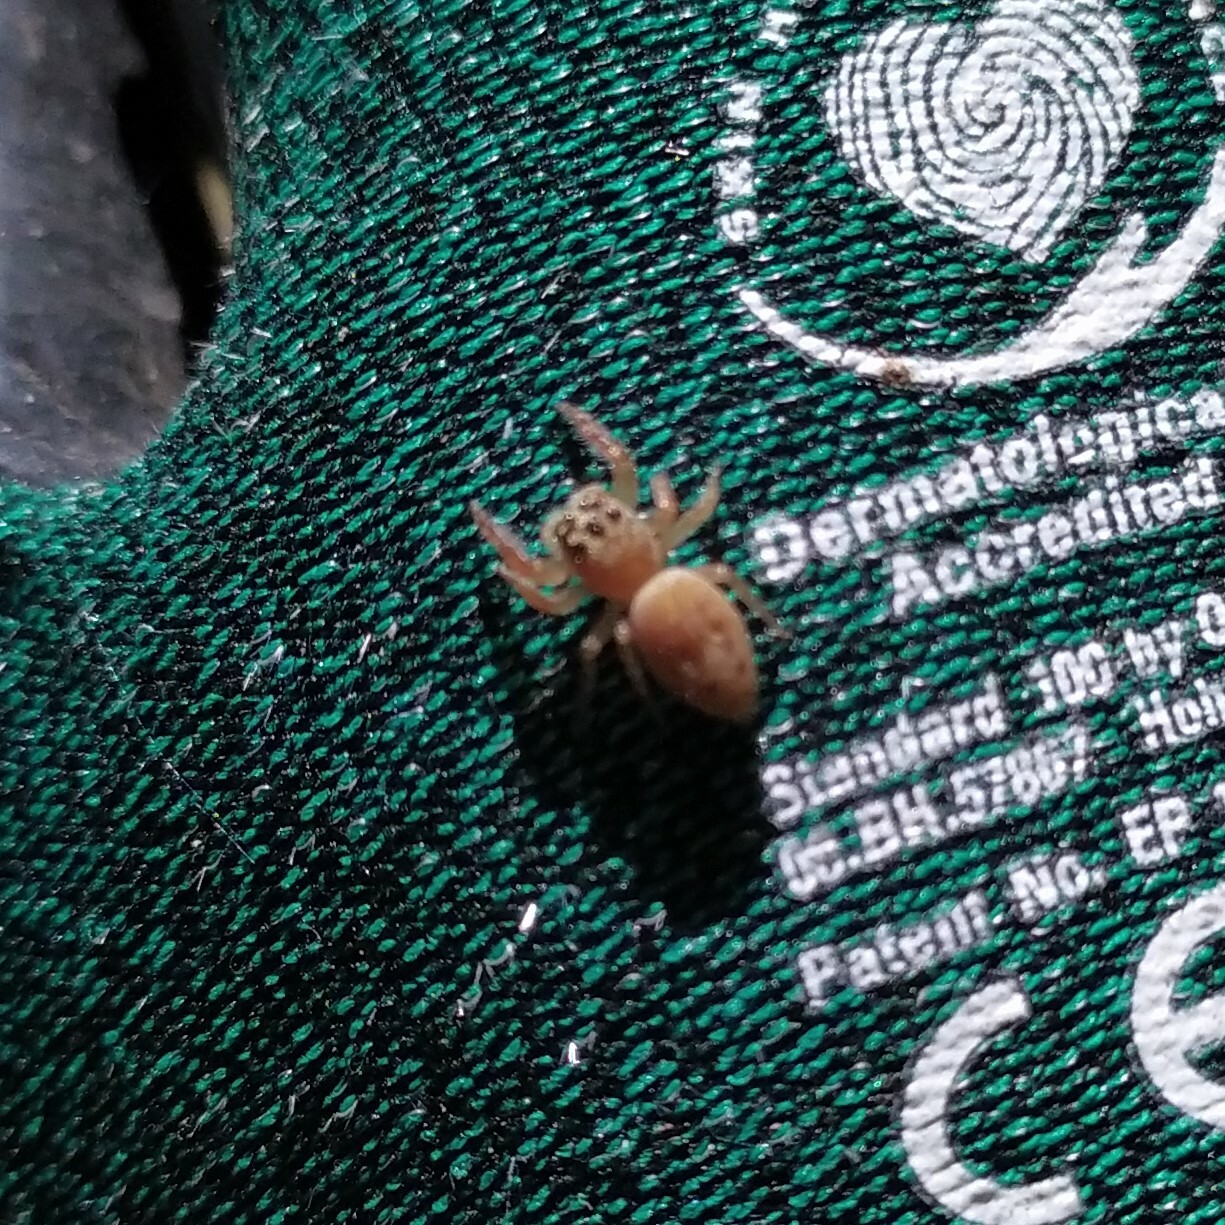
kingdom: Animalia
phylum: Arthropoda
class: Arachnida
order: Araneae
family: Salticidae
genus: Opisthoncus
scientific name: Opisthoncus polyphemus
